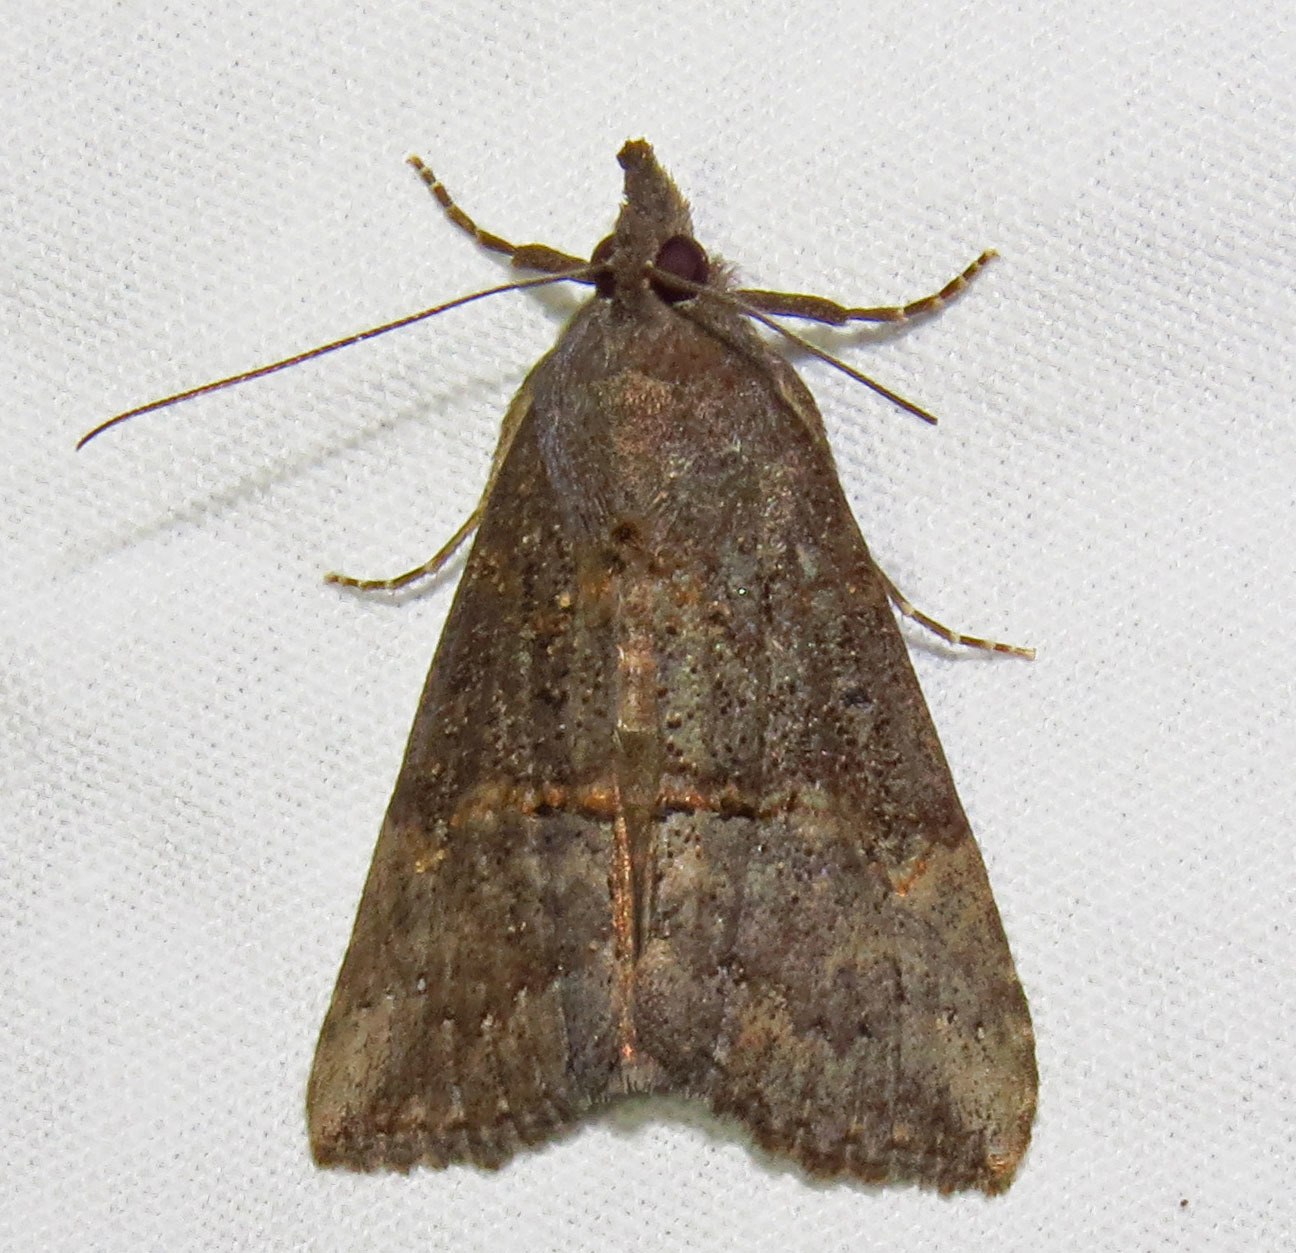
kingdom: Animalia
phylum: Arthropoda
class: Insecta
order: Lepidoptera
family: Erebidae
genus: Hypena
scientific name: Hypena scabra
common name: Green cloverworm
